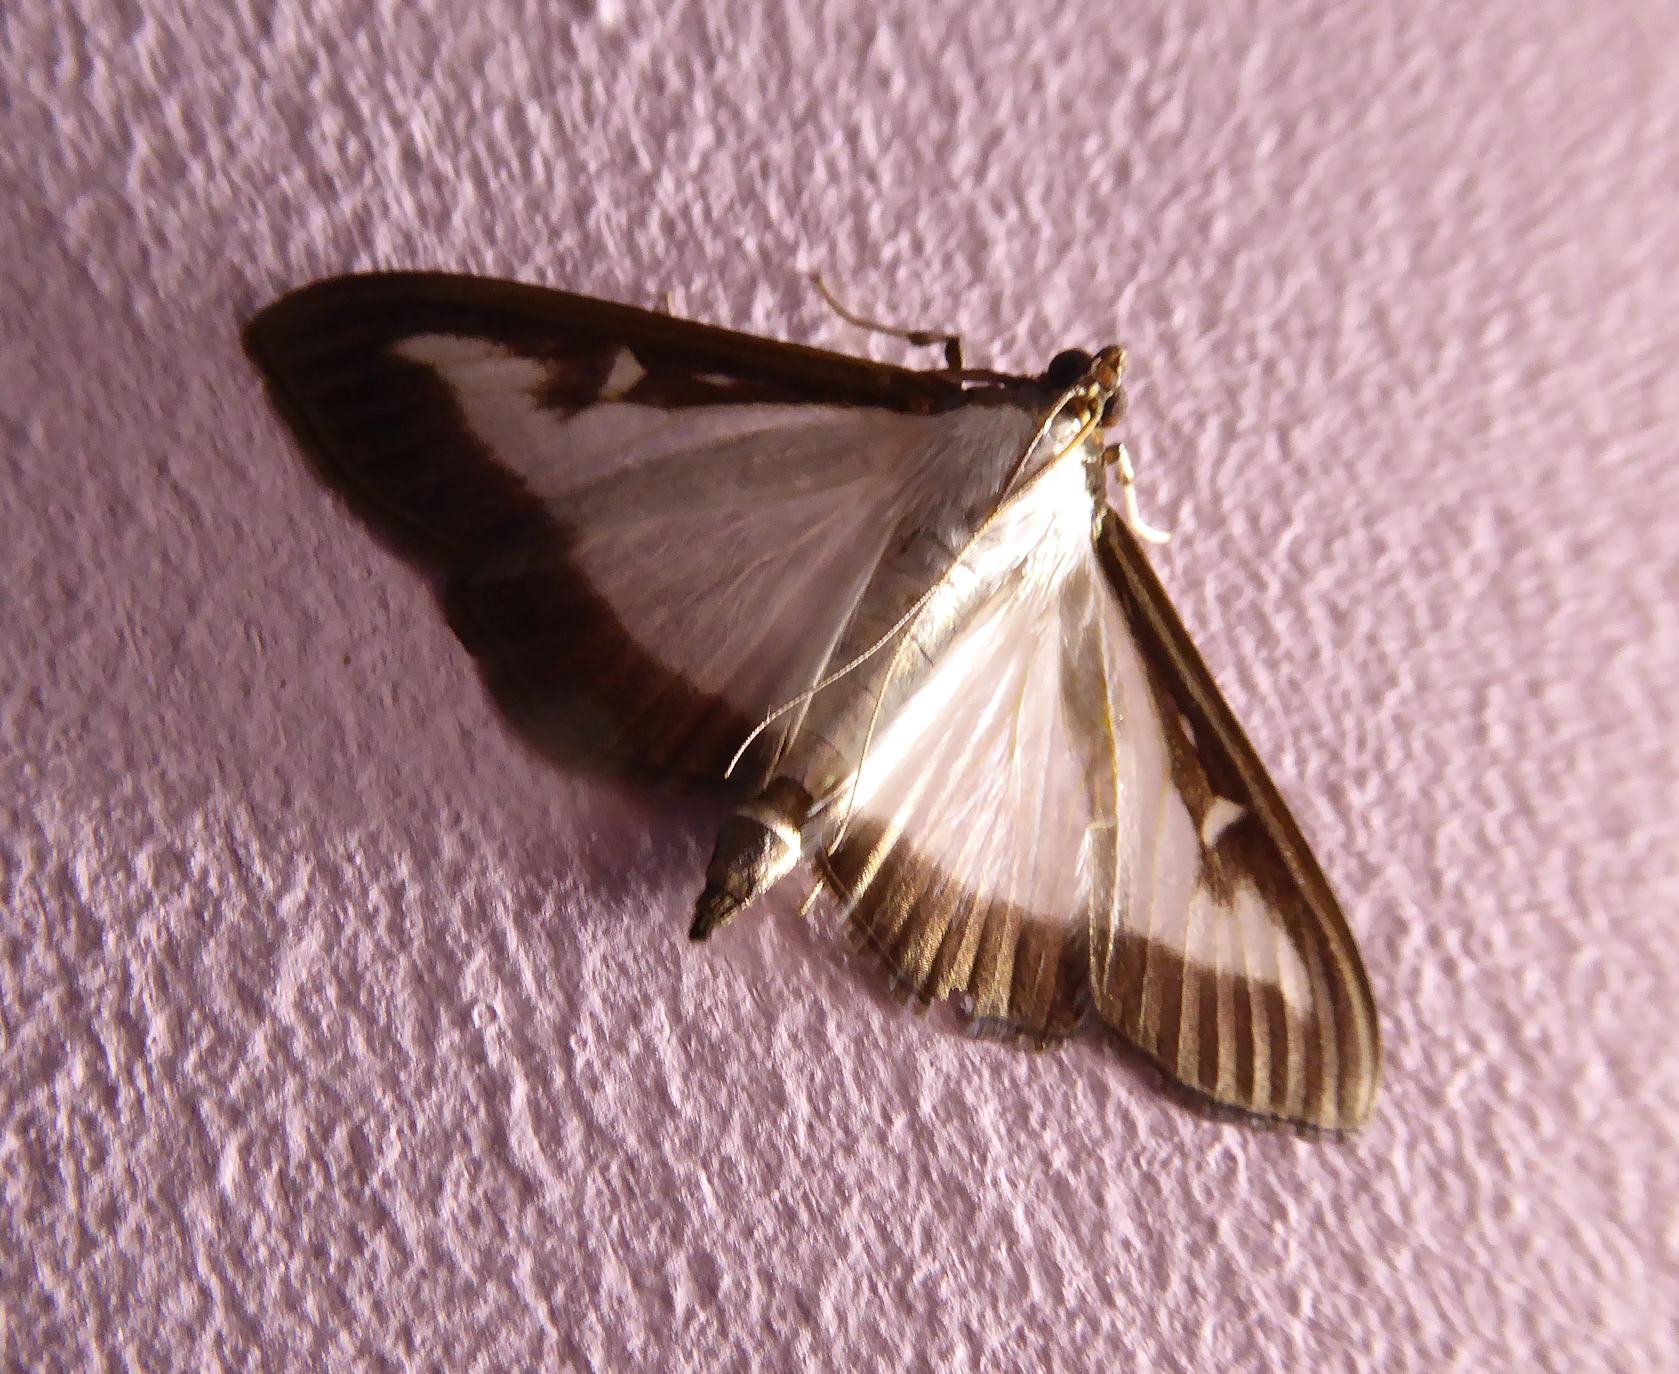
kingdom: Animalia
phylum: Arthropoda
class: Insecta
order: Lepidoptera
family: Crambidae
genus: Cydalima
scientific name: Cydalima perspectalis
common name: Box tree moth
